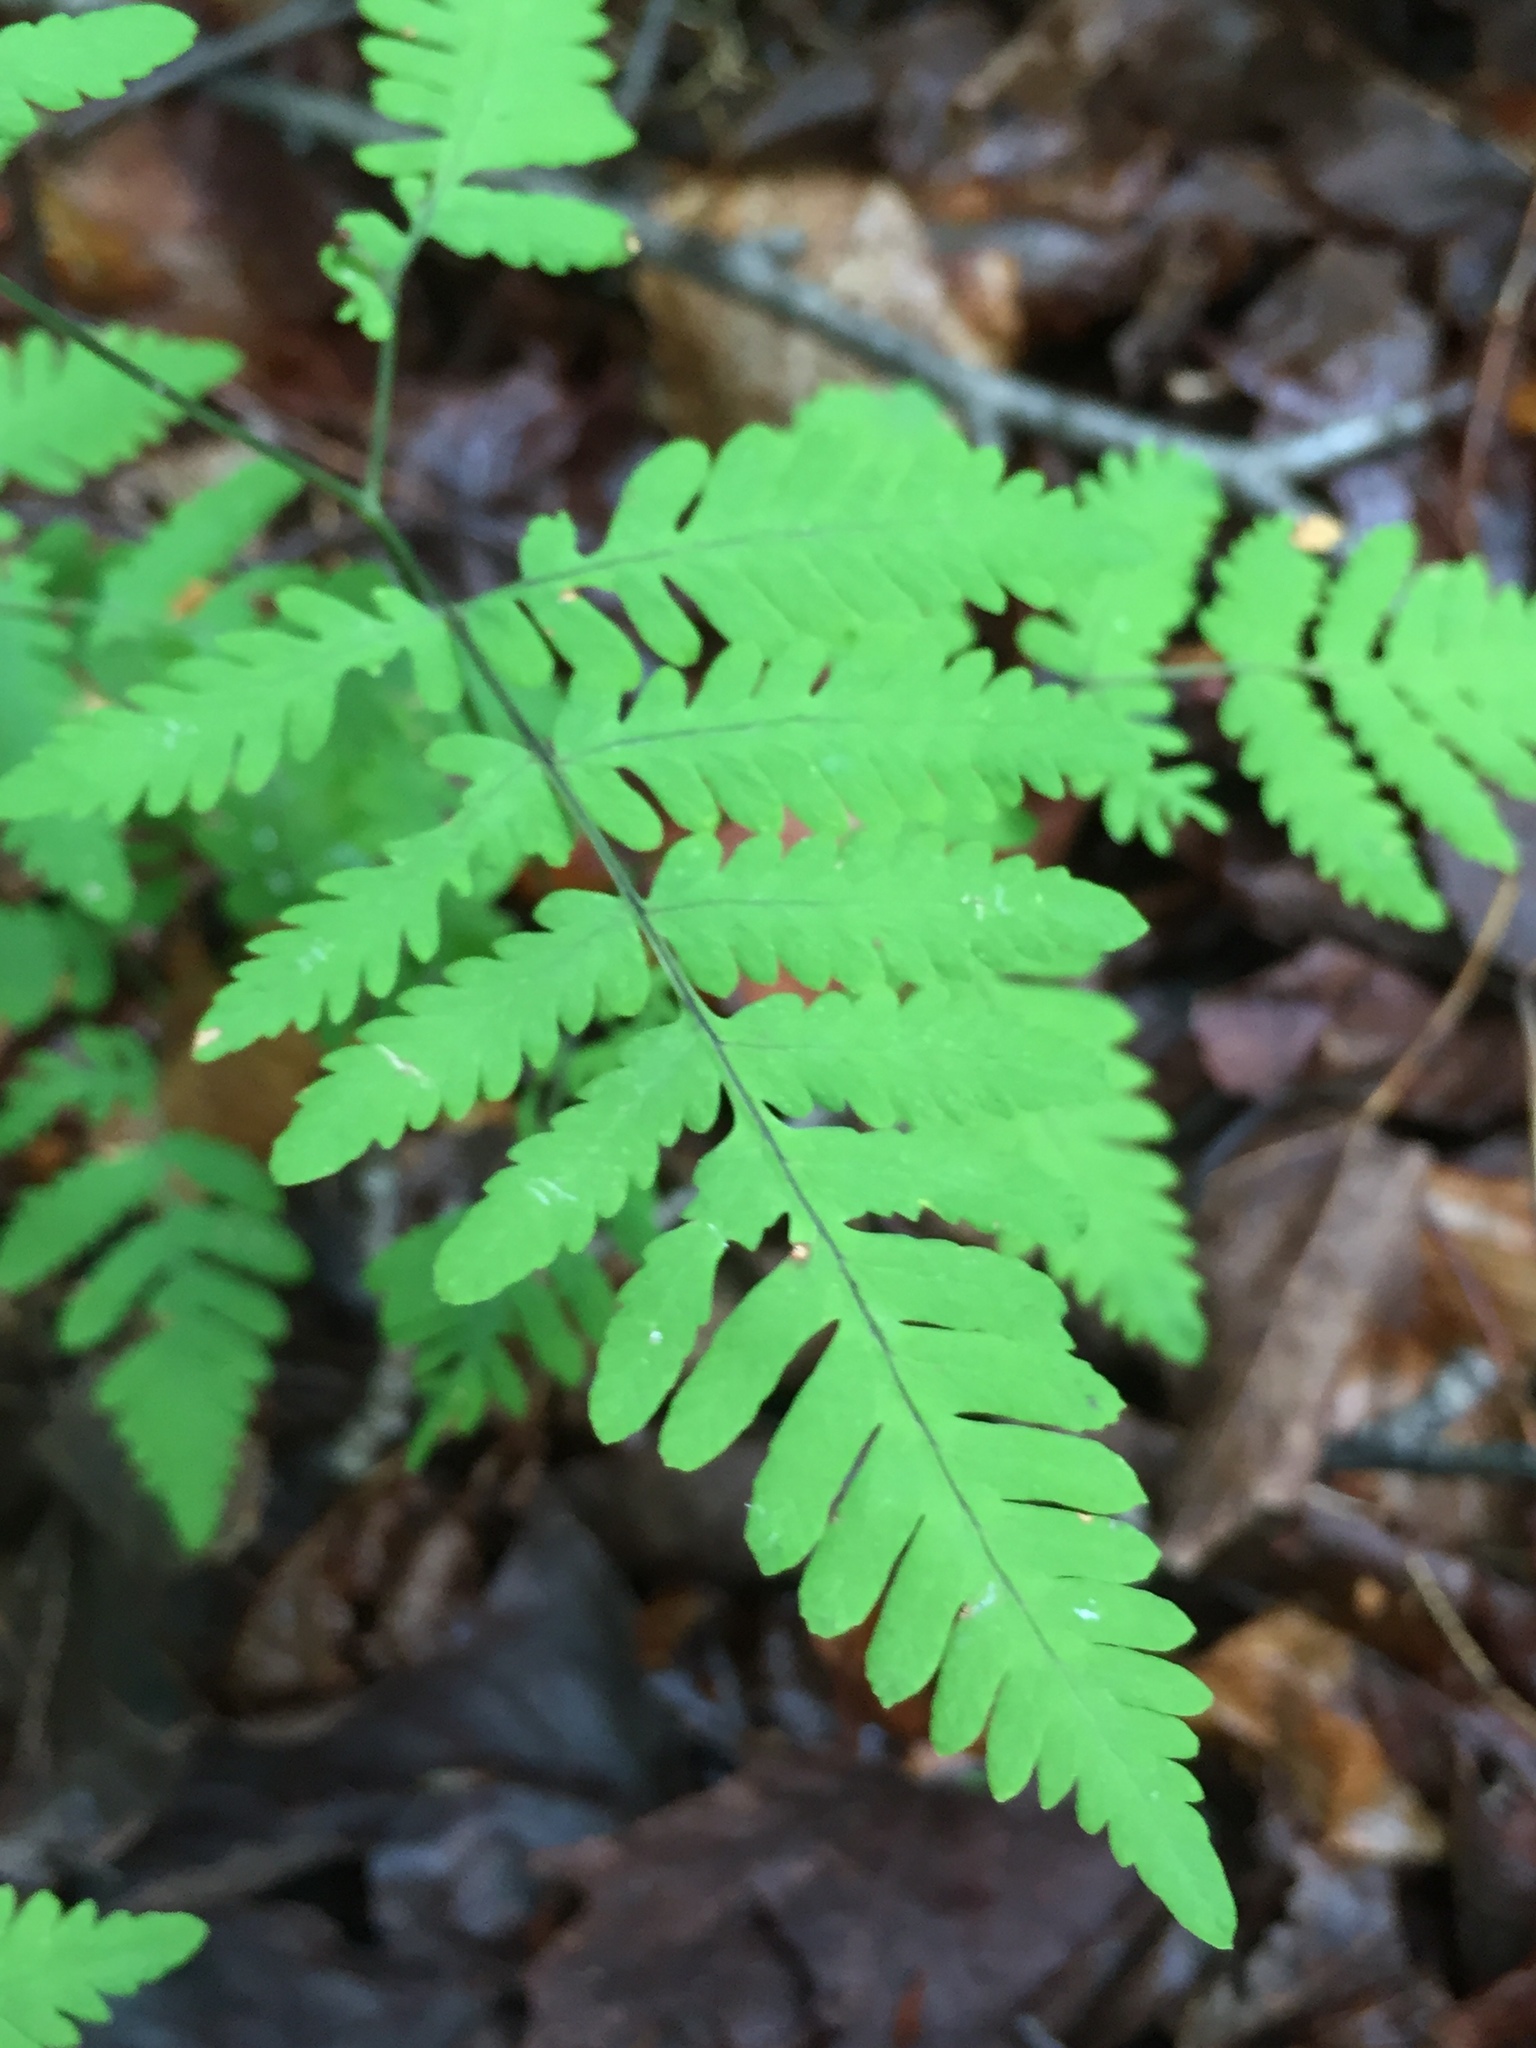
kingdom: Plantae
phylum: Tracheophyta
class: Polypodiopsida
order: Polypodiales
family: Cystopteridaceae
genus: Gymnocarpium
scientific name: Gymnocarpium dryopteris
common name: Oak fern
